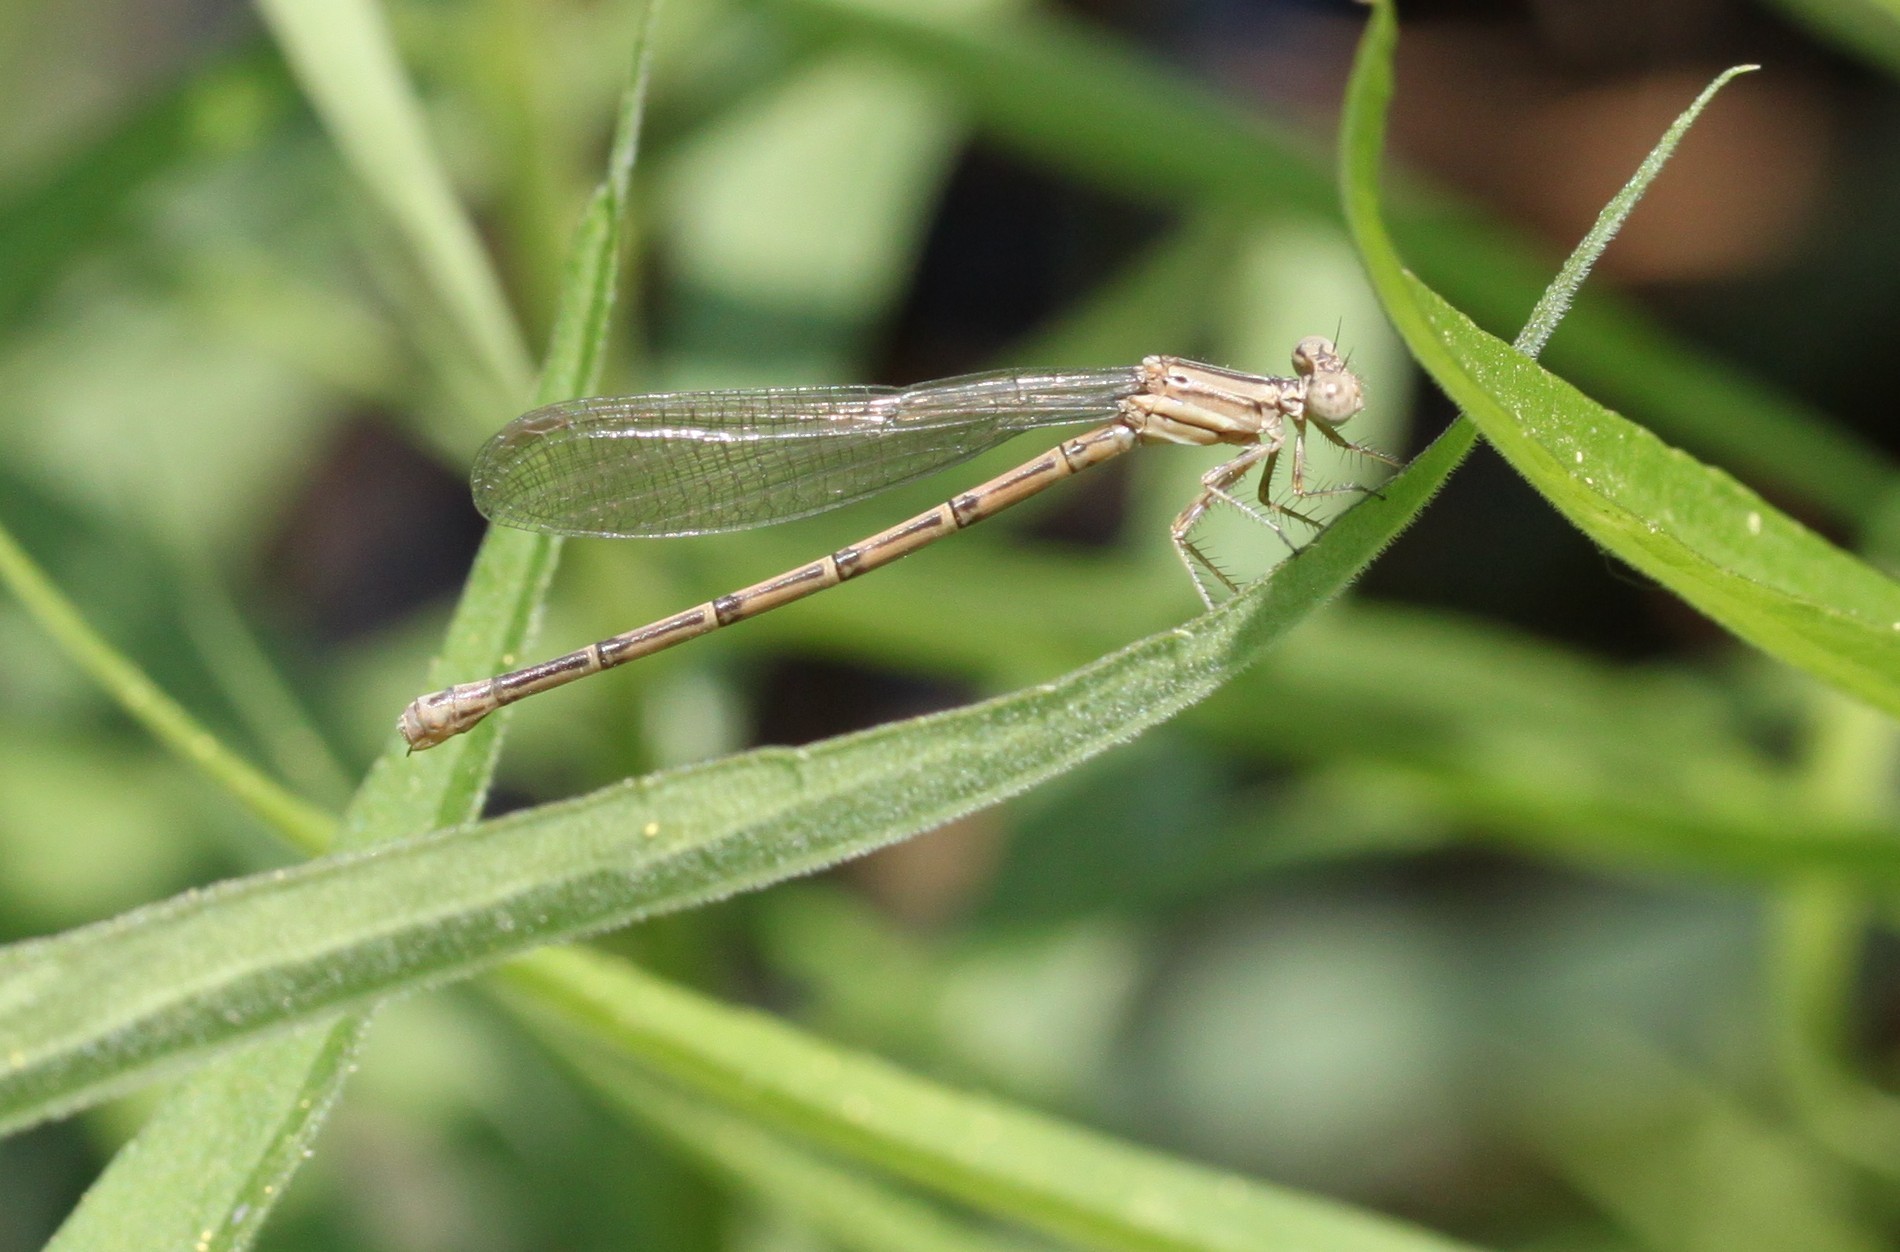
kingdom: Animalia
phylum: Arthropoda
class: Insecta
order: Odonata
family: Coenagrionidae
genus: Argia
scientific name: Argia fumipennis
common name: Variable dancer
